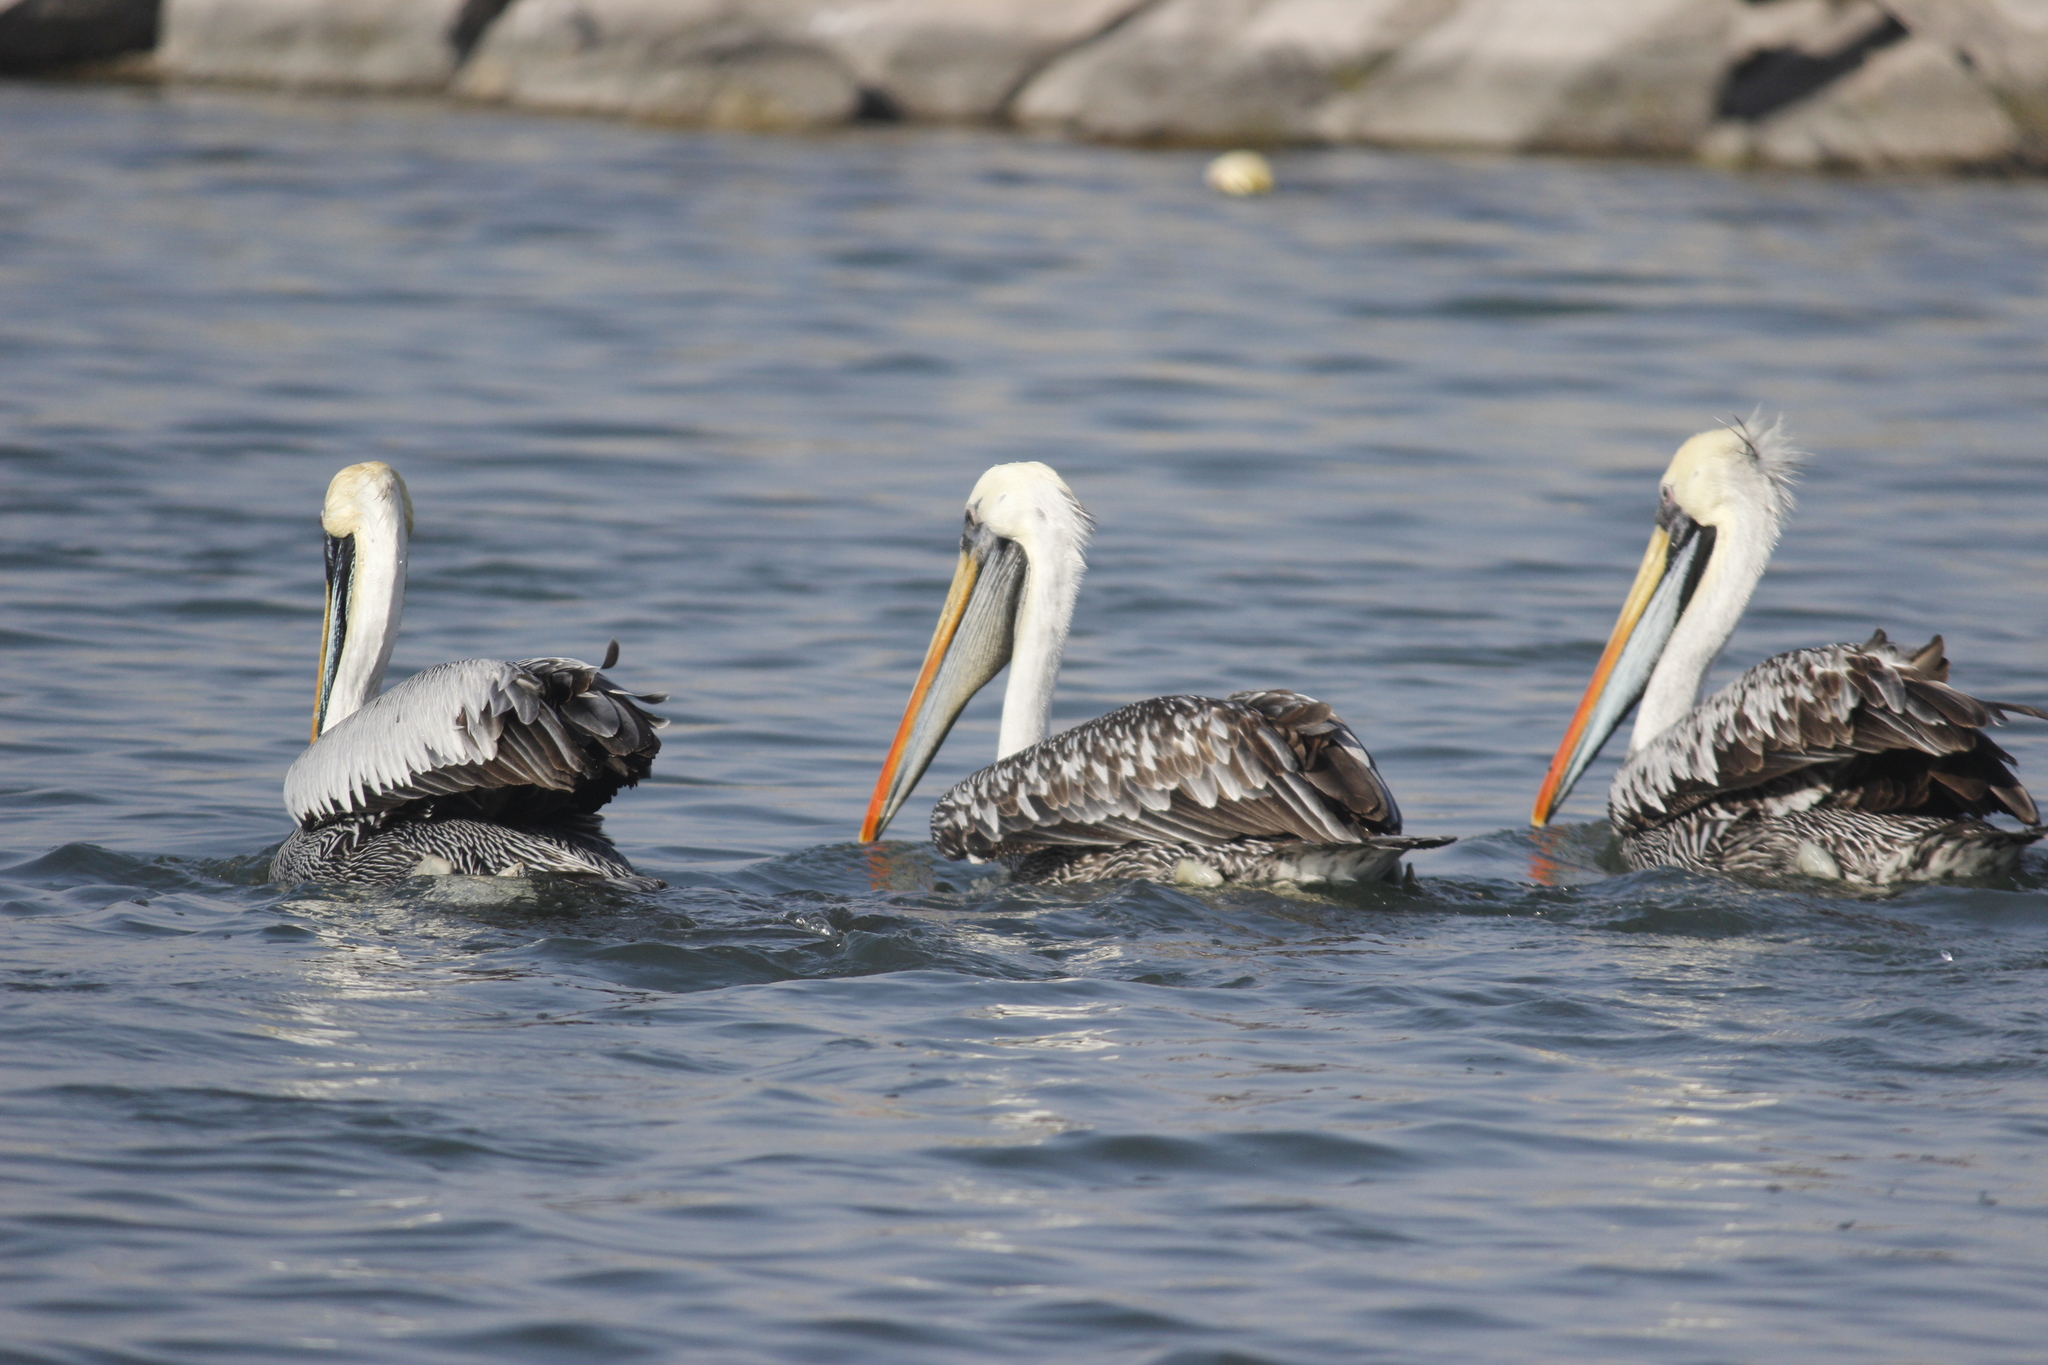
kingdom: Animalia
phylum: Chordata
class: Aves
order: Pelecaniformes
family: Pelecanidae
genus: Pelecanus
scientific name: Pelecanus thagus
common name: Peruvian pelican
